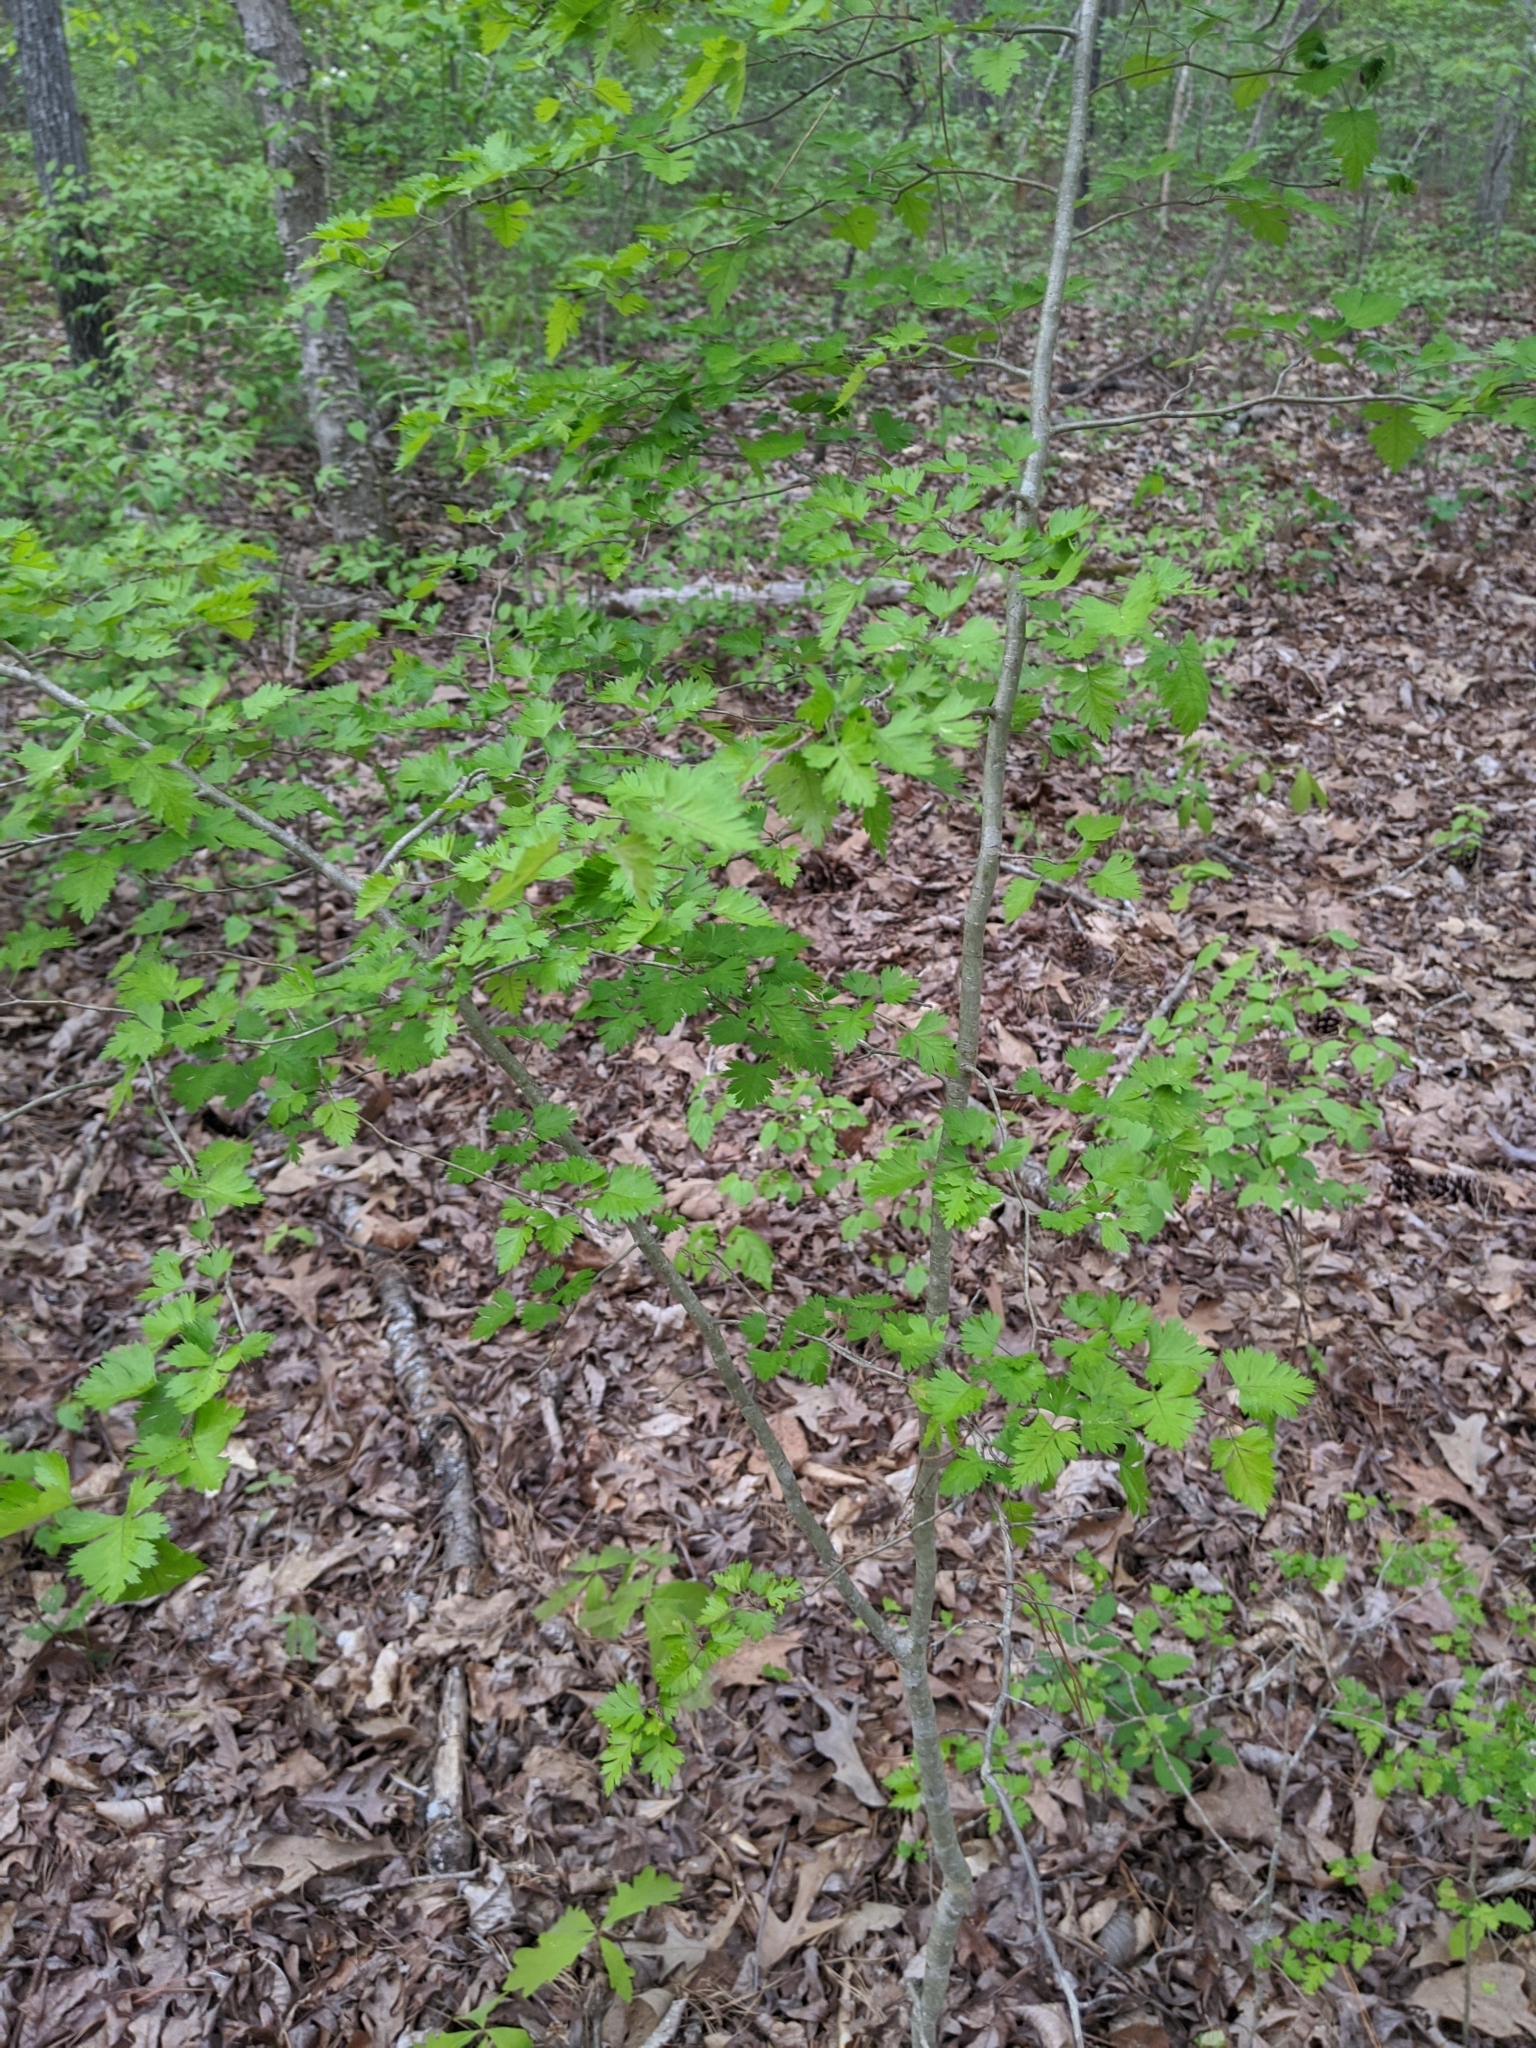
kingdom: Plantae
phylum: Tracheophyta
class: Magnoliopsida
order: Rosales
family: Rosaceae
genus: Crataegus
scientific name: Crataegus marshallii
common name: Parsley-hawthorn
